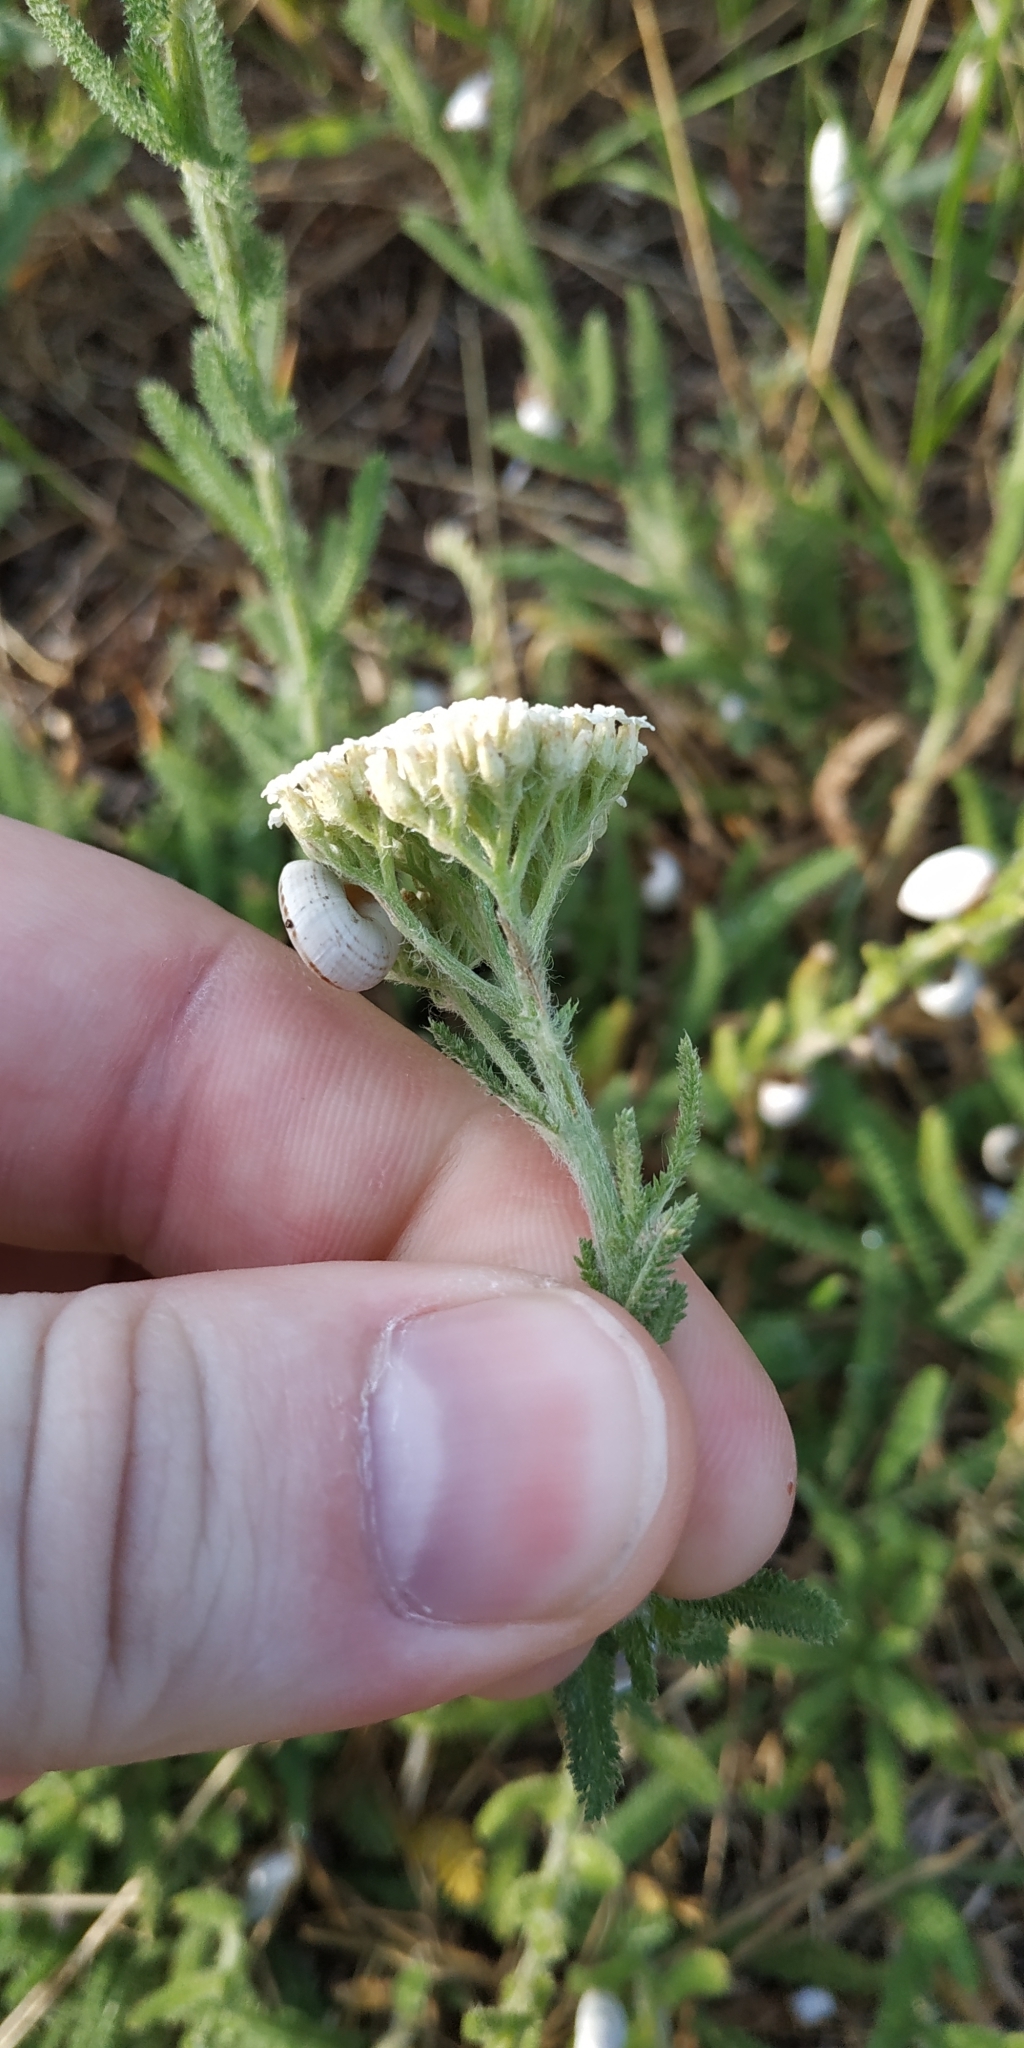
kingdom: Plantae
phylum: Tracheophyta
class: Magnoliopsida
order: Asterales
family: Asteraceae
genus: Achillea
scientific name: Achillea setacea
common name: Bristly yarrow
